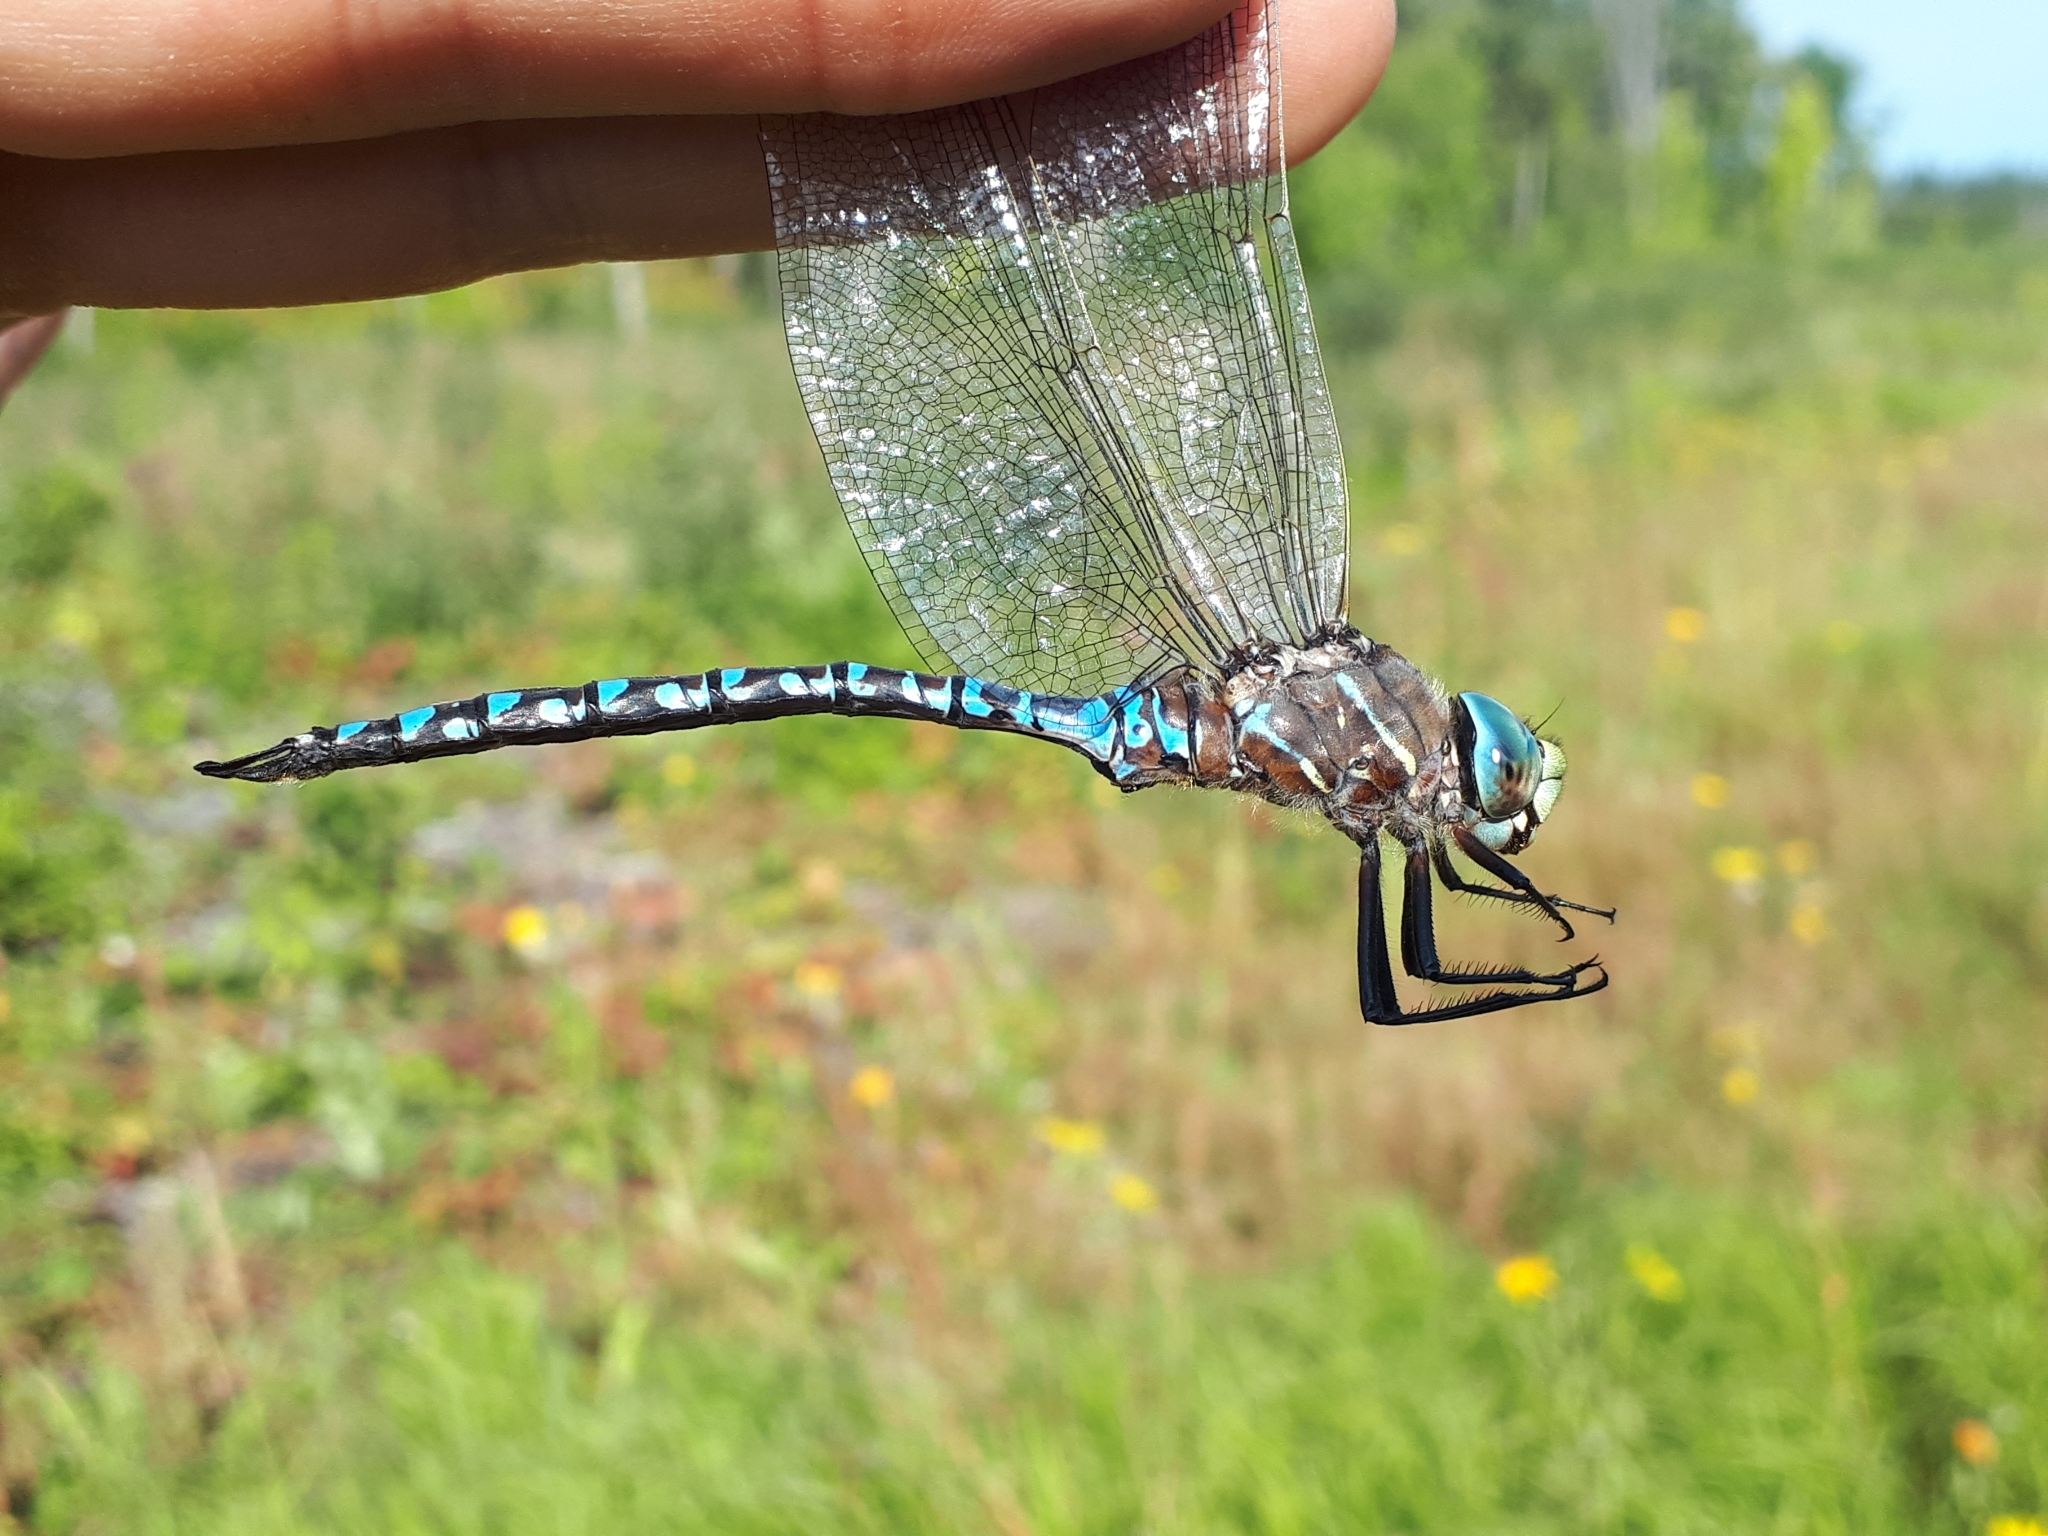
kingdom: Animalia
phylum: Arthropoda
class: Insecta
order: Odonata
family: Aeshnidae
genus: Aeshna
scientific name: Aeshna interrupta
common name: Variable darner
